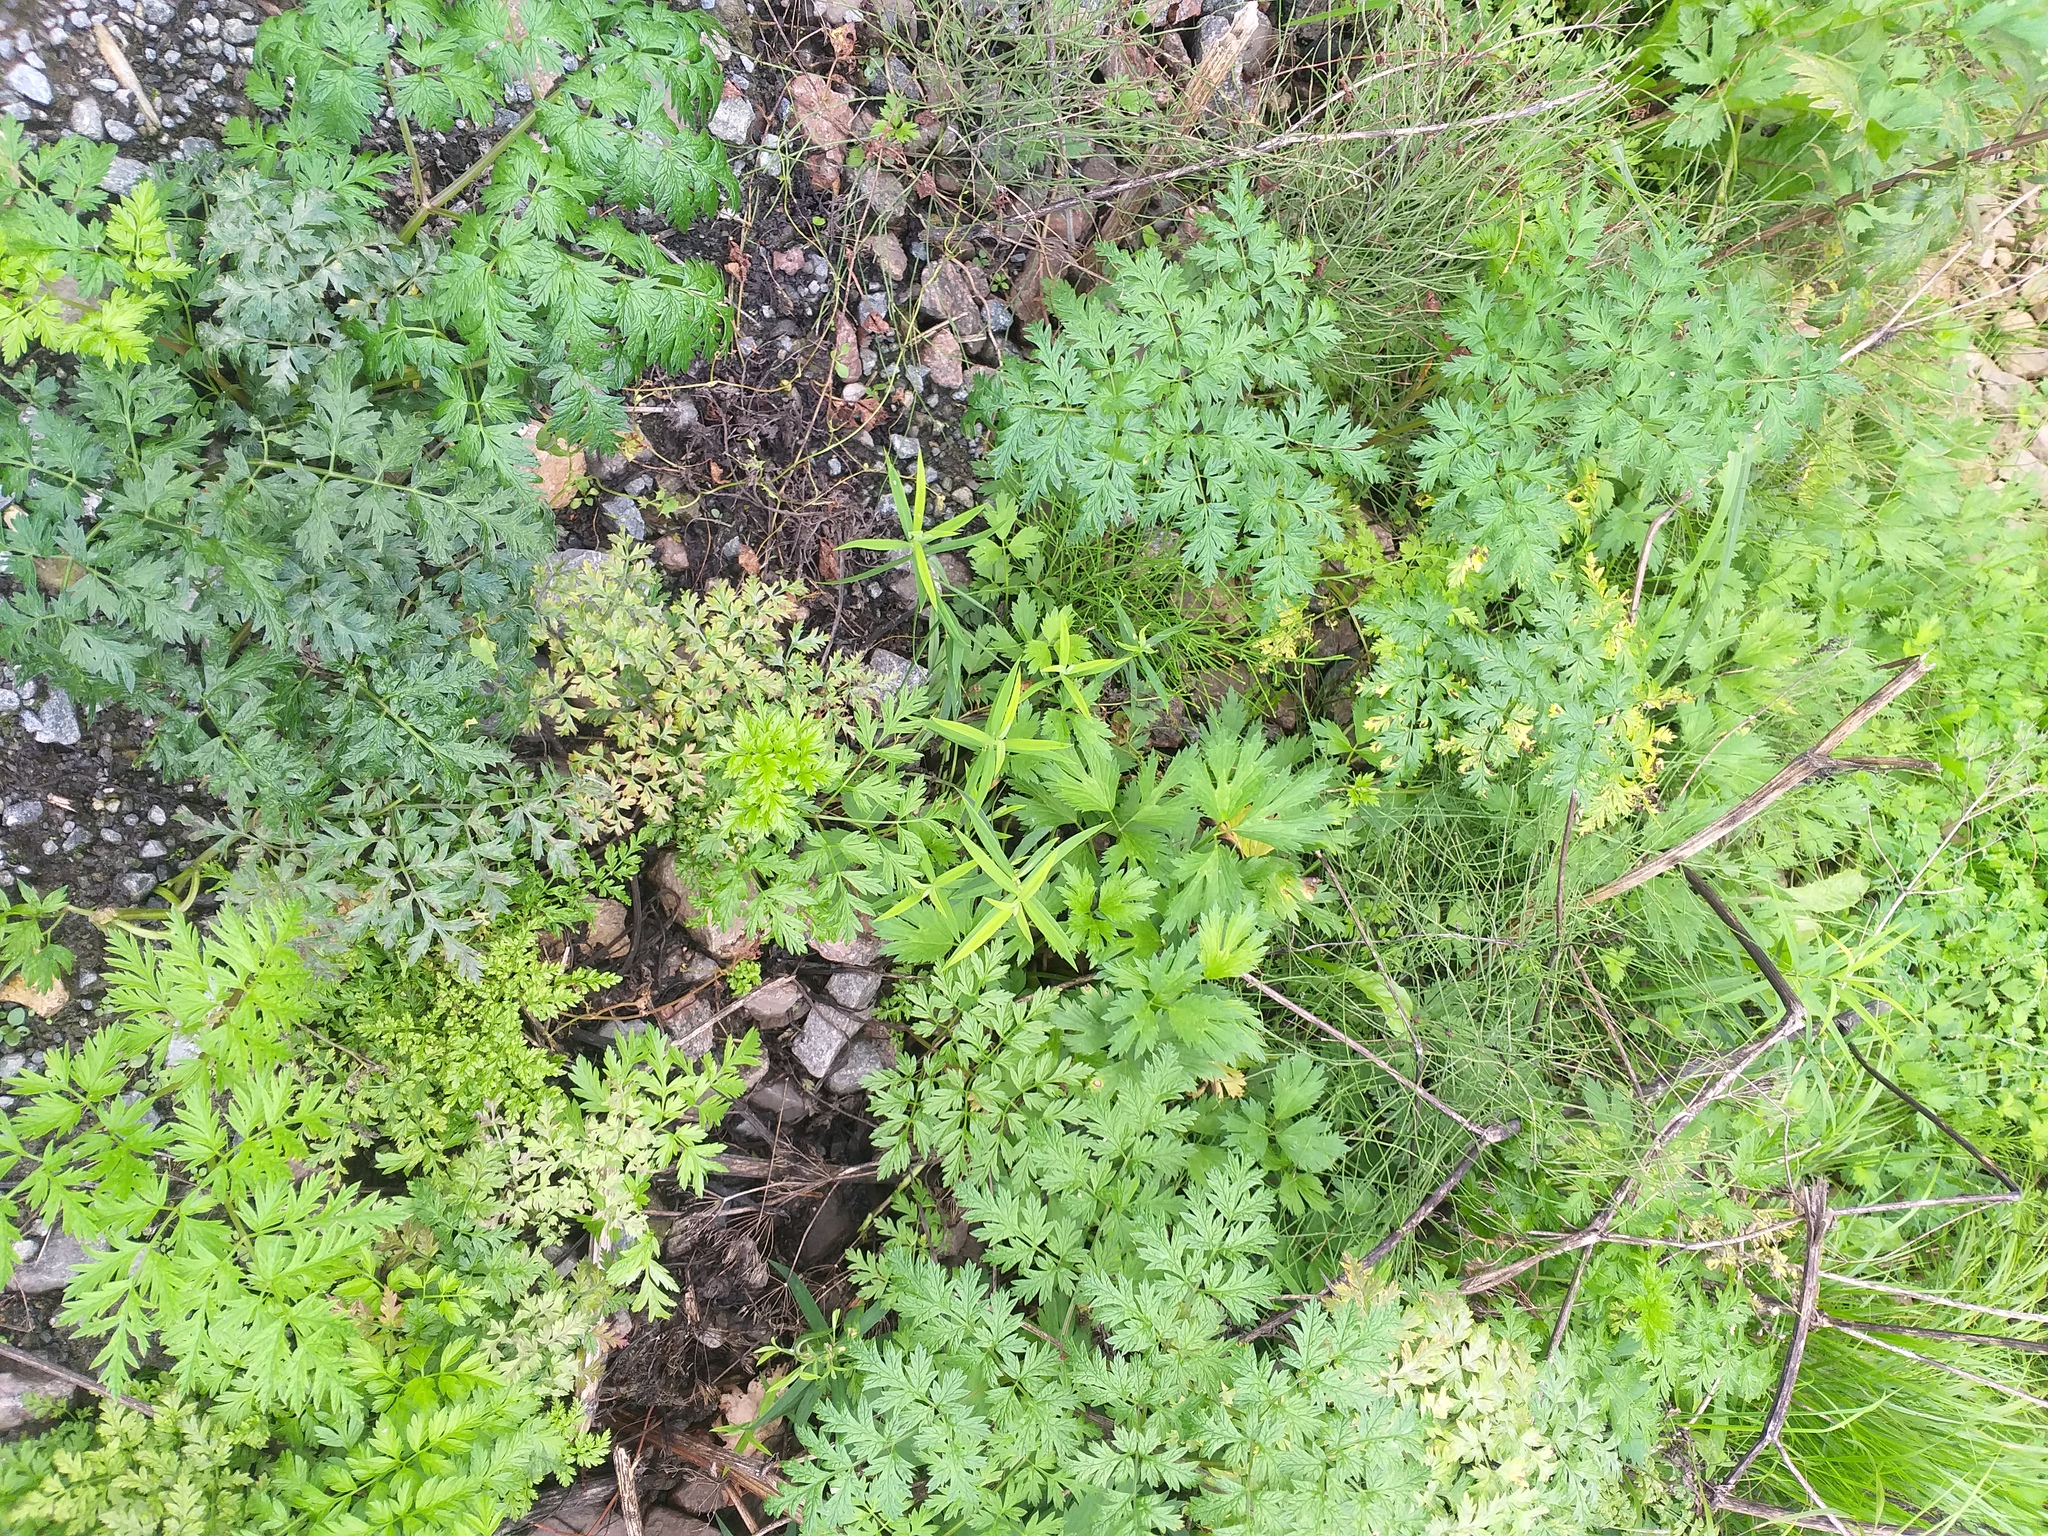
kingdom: Plantae
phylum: Tracheophyta
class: Magnoliopsida
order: Caryophyllales
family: Caryophyllaceae
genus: Rabelera
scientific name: Rabelera holostea
